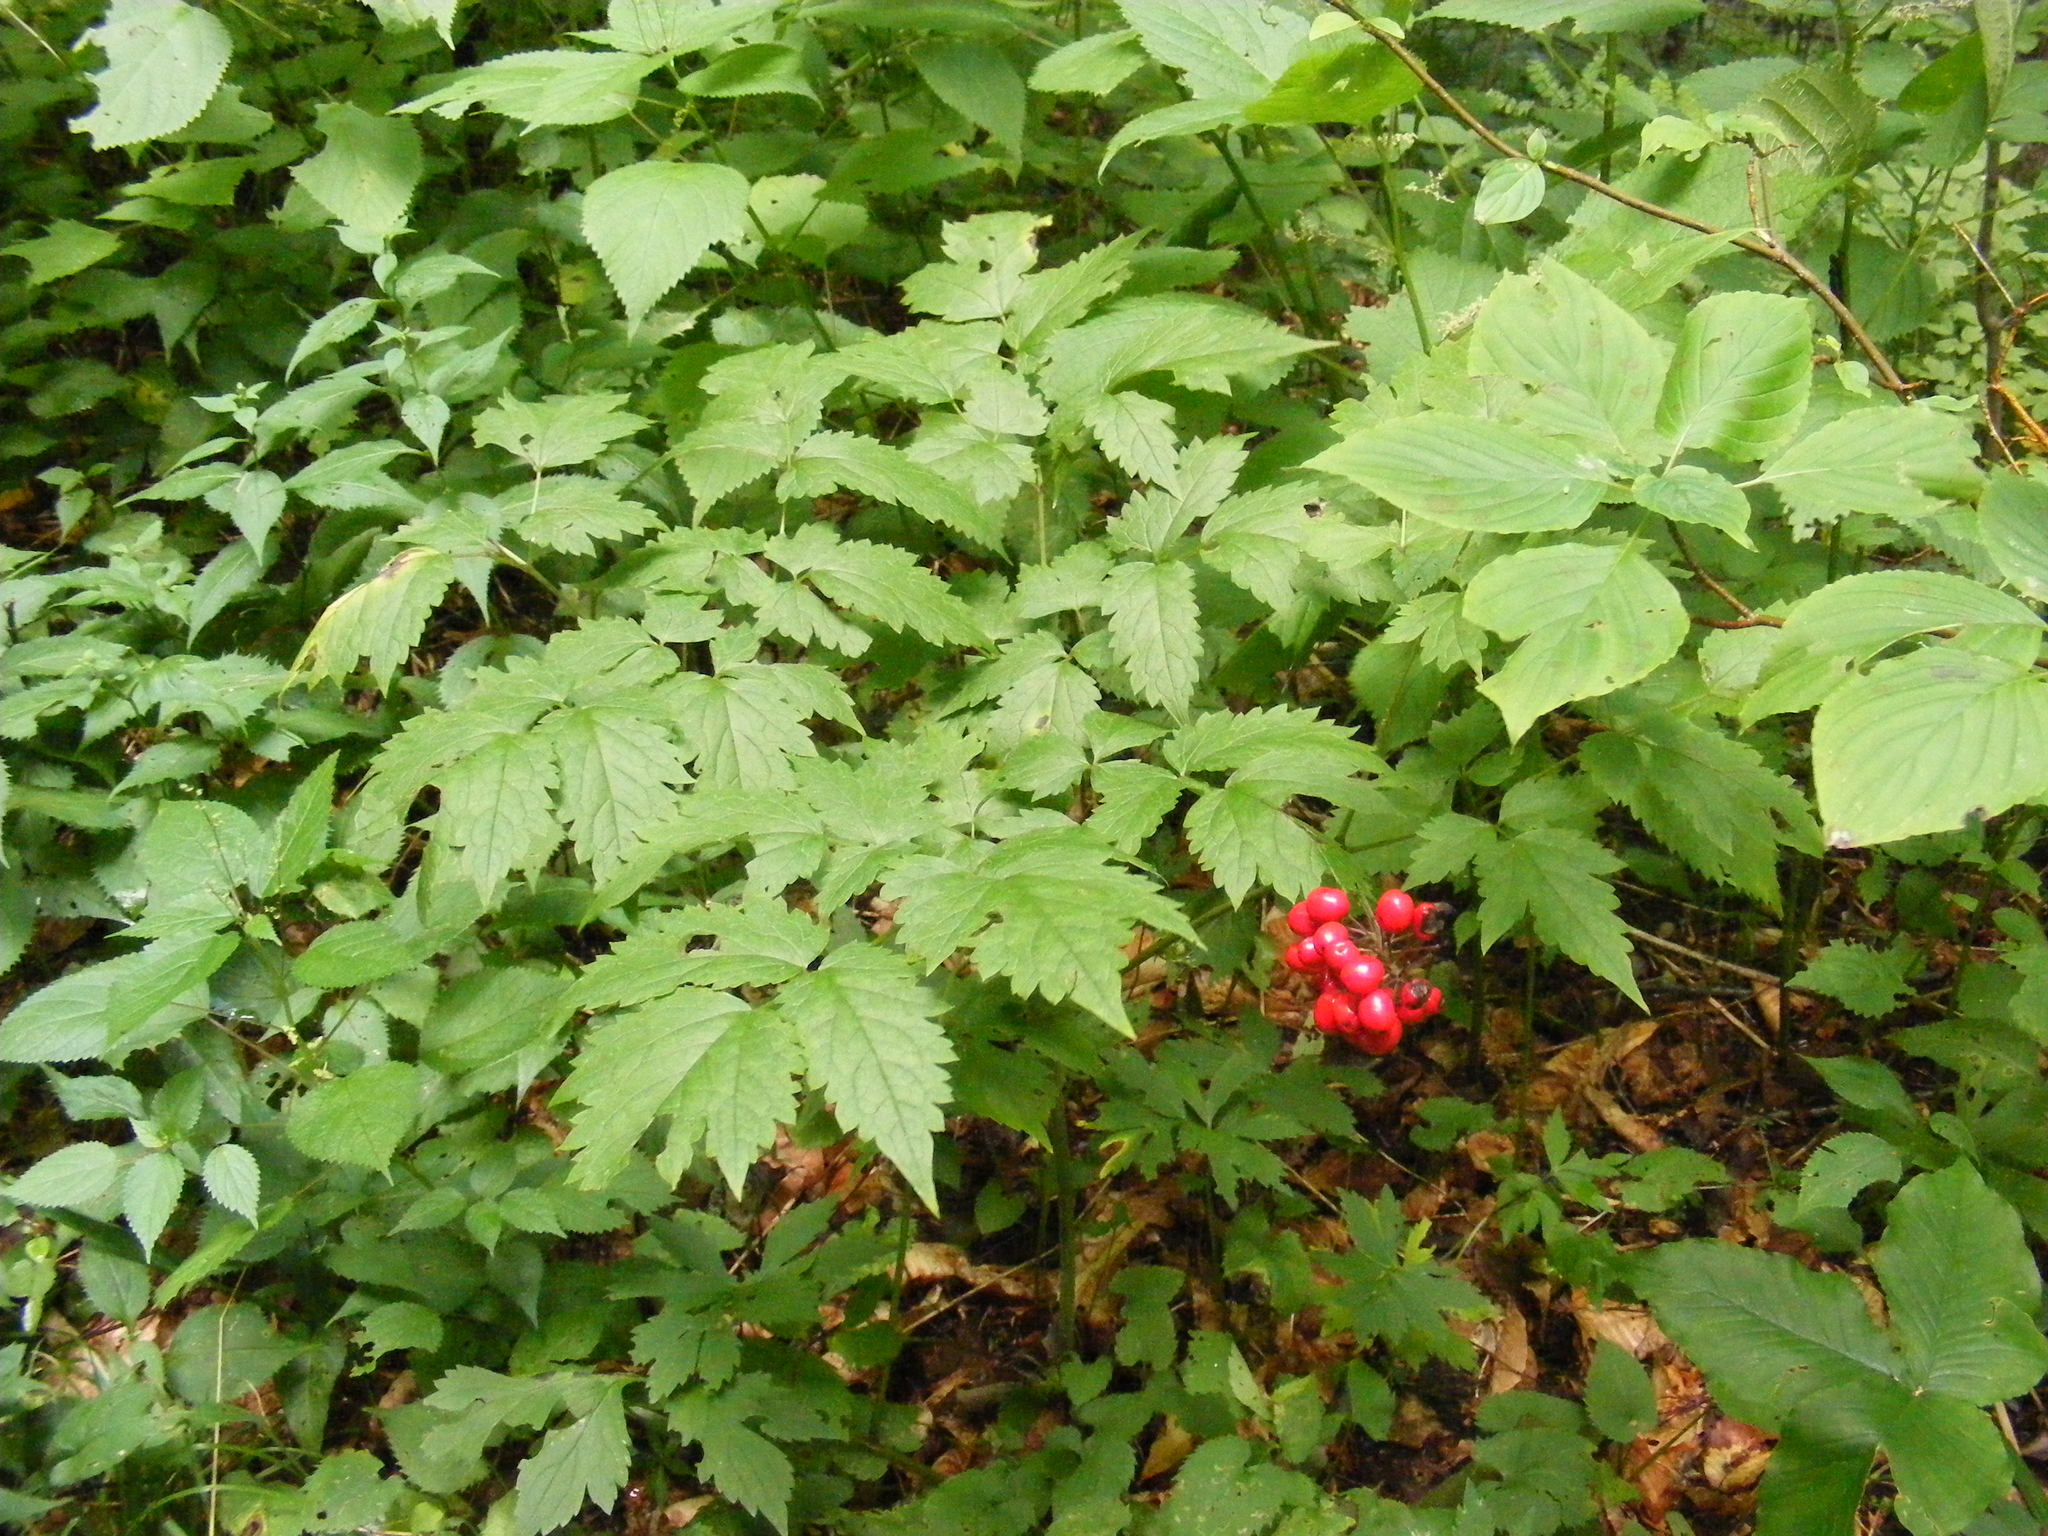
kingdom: Plantae
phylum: Tracheophyta
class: Magnoliopsida
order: Ranunculales
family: Ranunculaceae
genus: Actaea
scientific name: Actaea rubra
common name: Red baneberry
